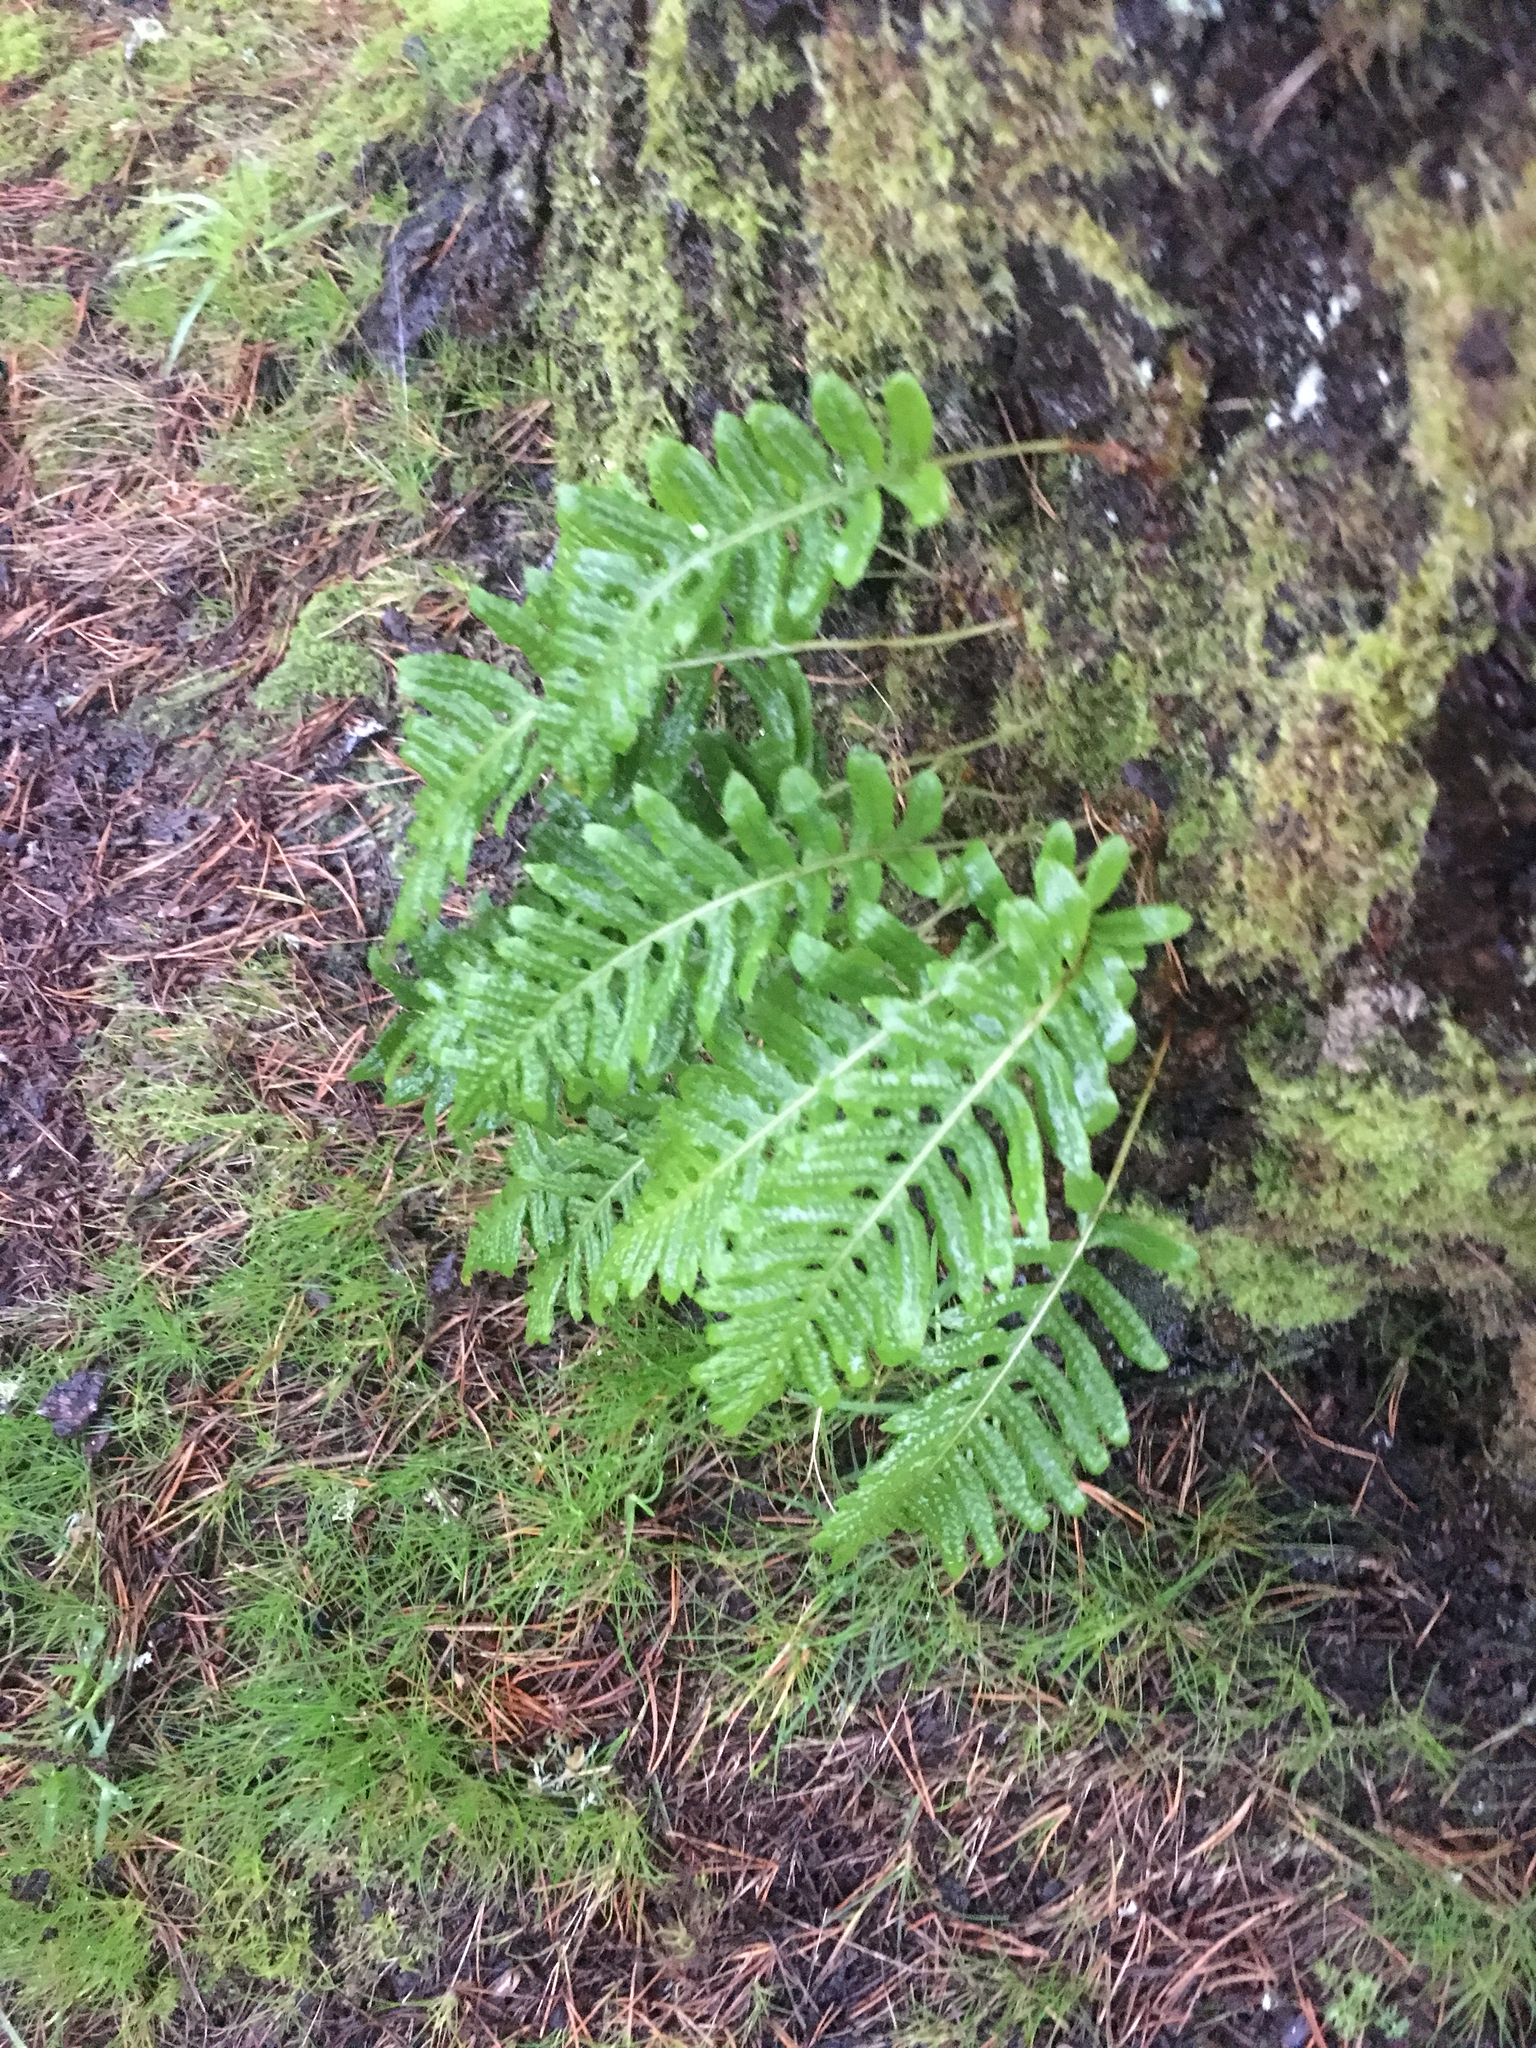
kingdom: Plantae
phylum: Tracheophyta
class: Polypodiopsida
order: Polypodiales
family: Polypodiaceae
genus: Polypodium
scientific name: Polypodium glycyrrhiza
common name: Licorice fern
